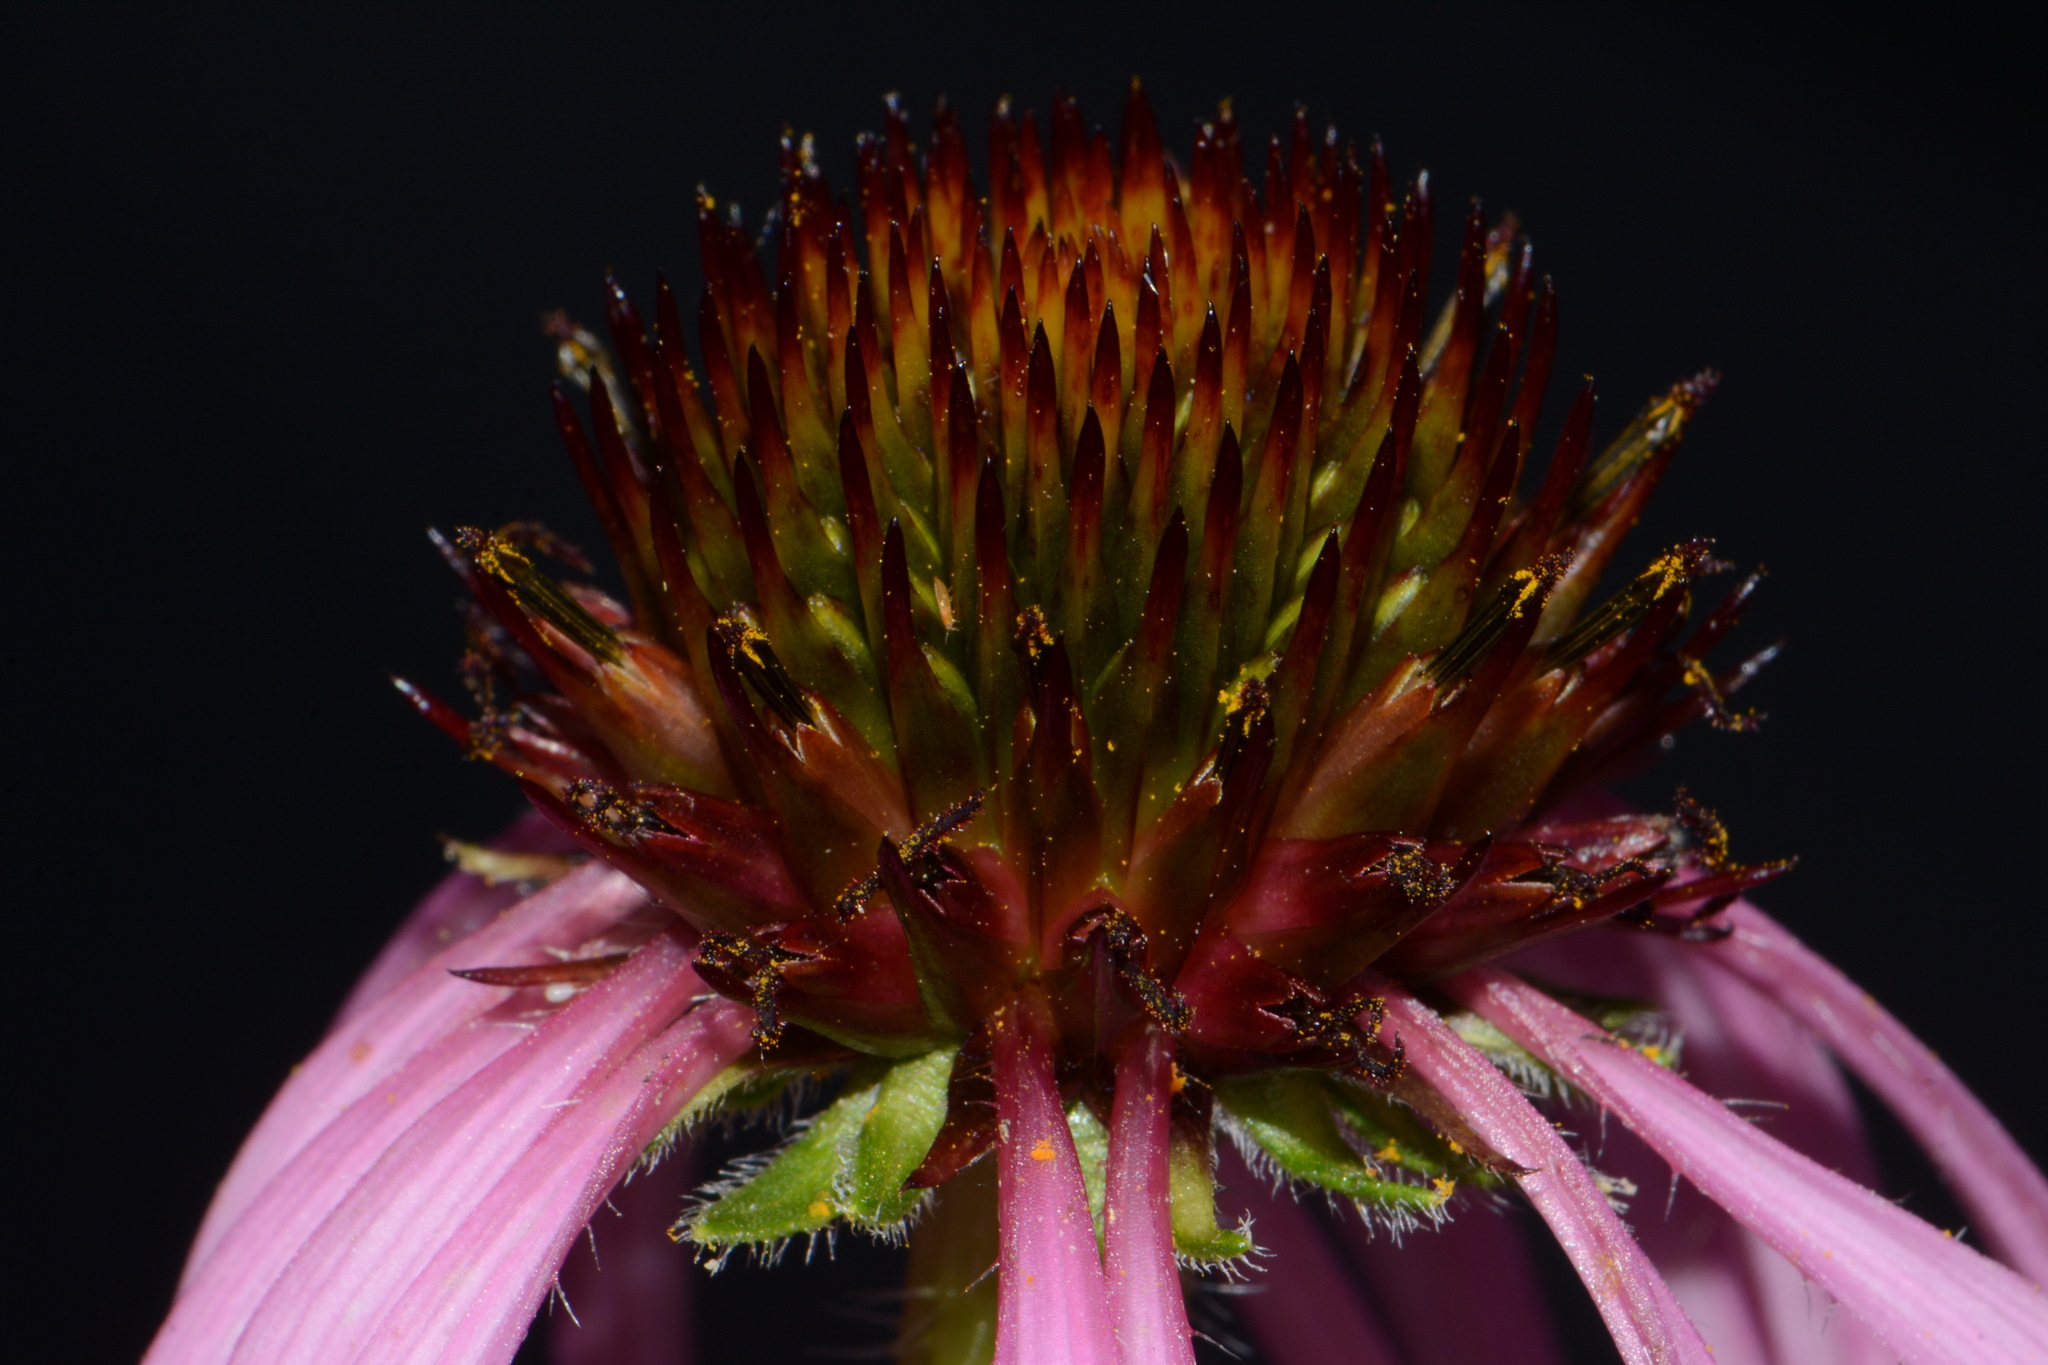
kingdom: Plantae
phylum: Tracheophyta
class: Magnoliopsida
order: Asterales
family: Asteraceae
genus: Echinacea
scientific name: Echinacea simulata
